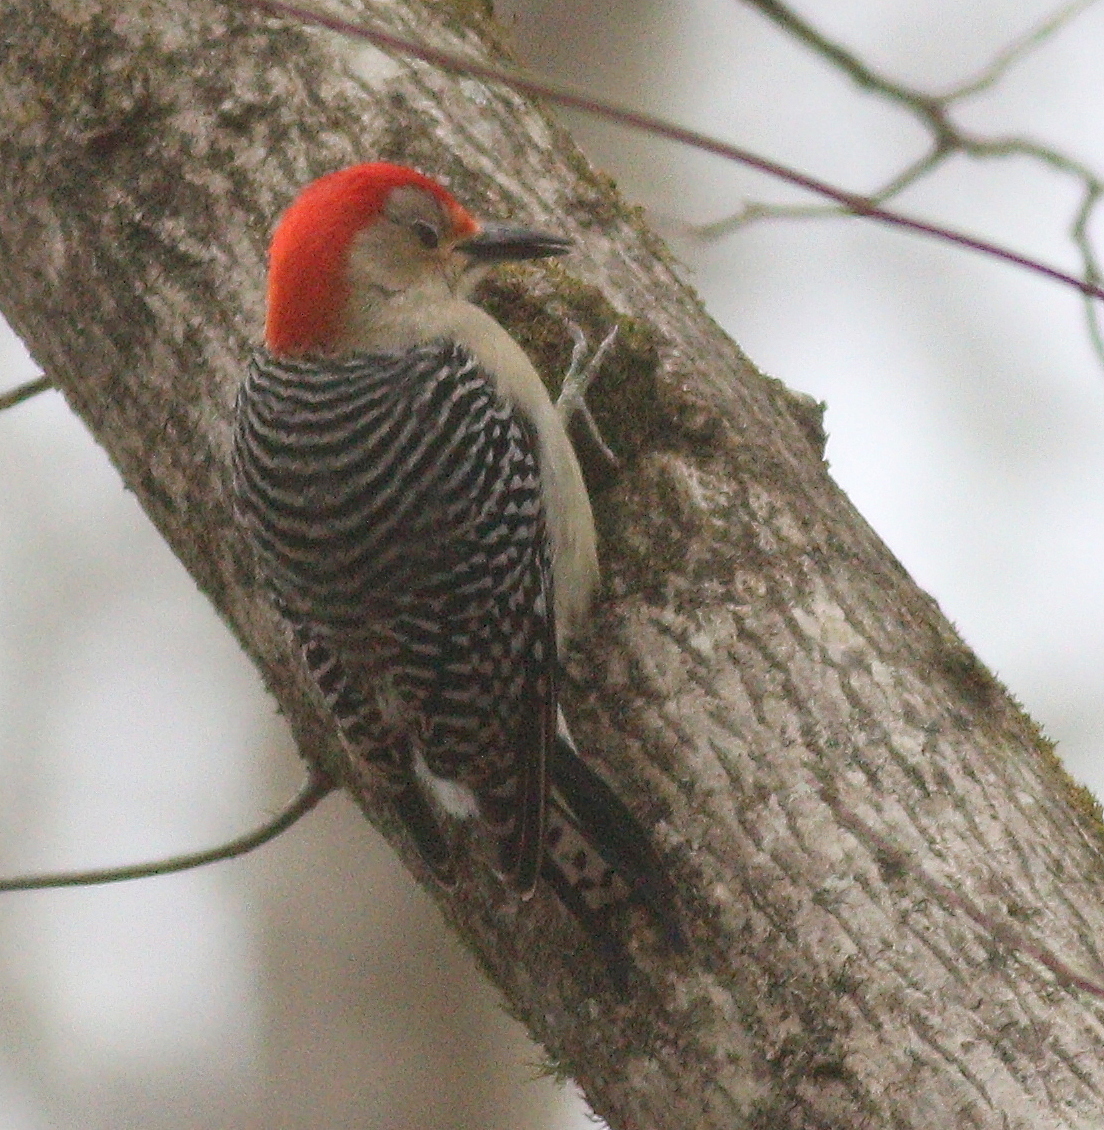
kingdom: Animalia
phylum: Chordata
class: Aves
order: Piciformes
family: Picidae
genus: Melanerpes
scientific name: Melanerpes carolinus
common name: Red-bellied woodpecker
